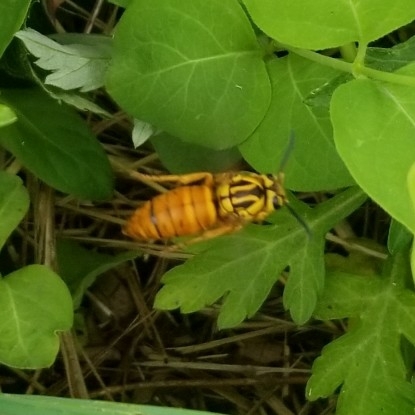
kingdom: Animalia
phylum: Arthropoda
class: Insecta
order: Hymenoptera
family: Vespidae
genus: Vespula
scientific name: Vespula squamosa
